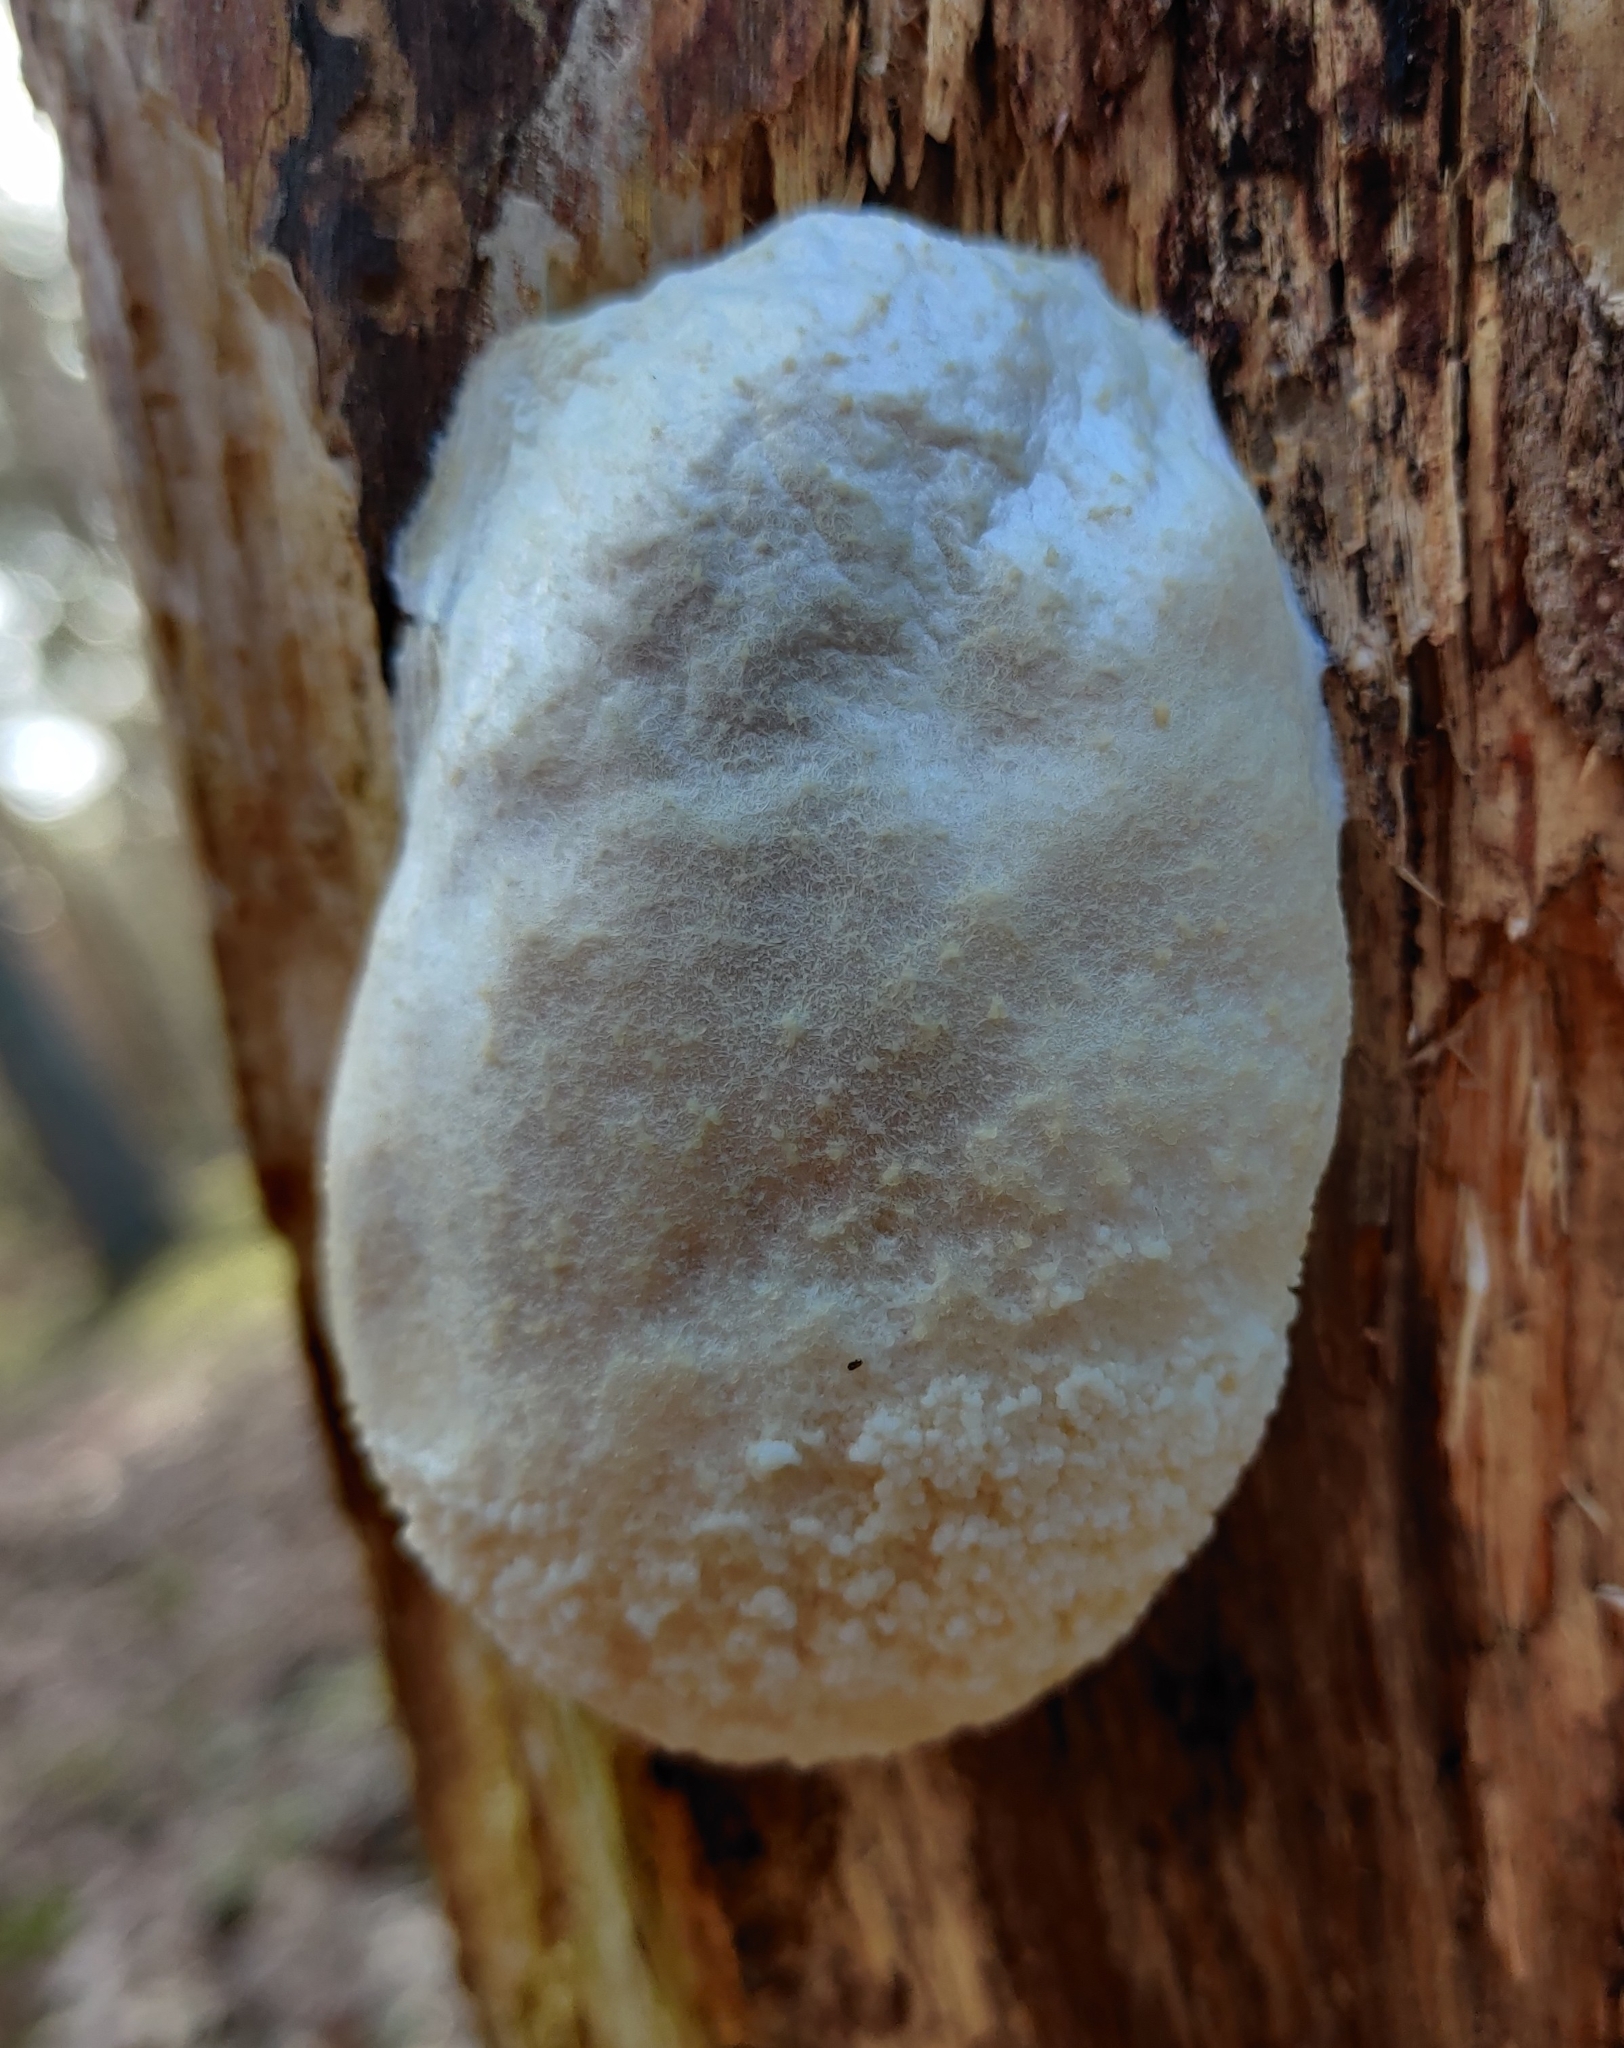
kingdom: Protozoa
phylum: Mycetozoa
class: Myxomycetes
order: Cribrariales
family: Tubiferaceae
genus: Reticularia
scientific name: Reticularia lycoperdon
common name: False puffball
